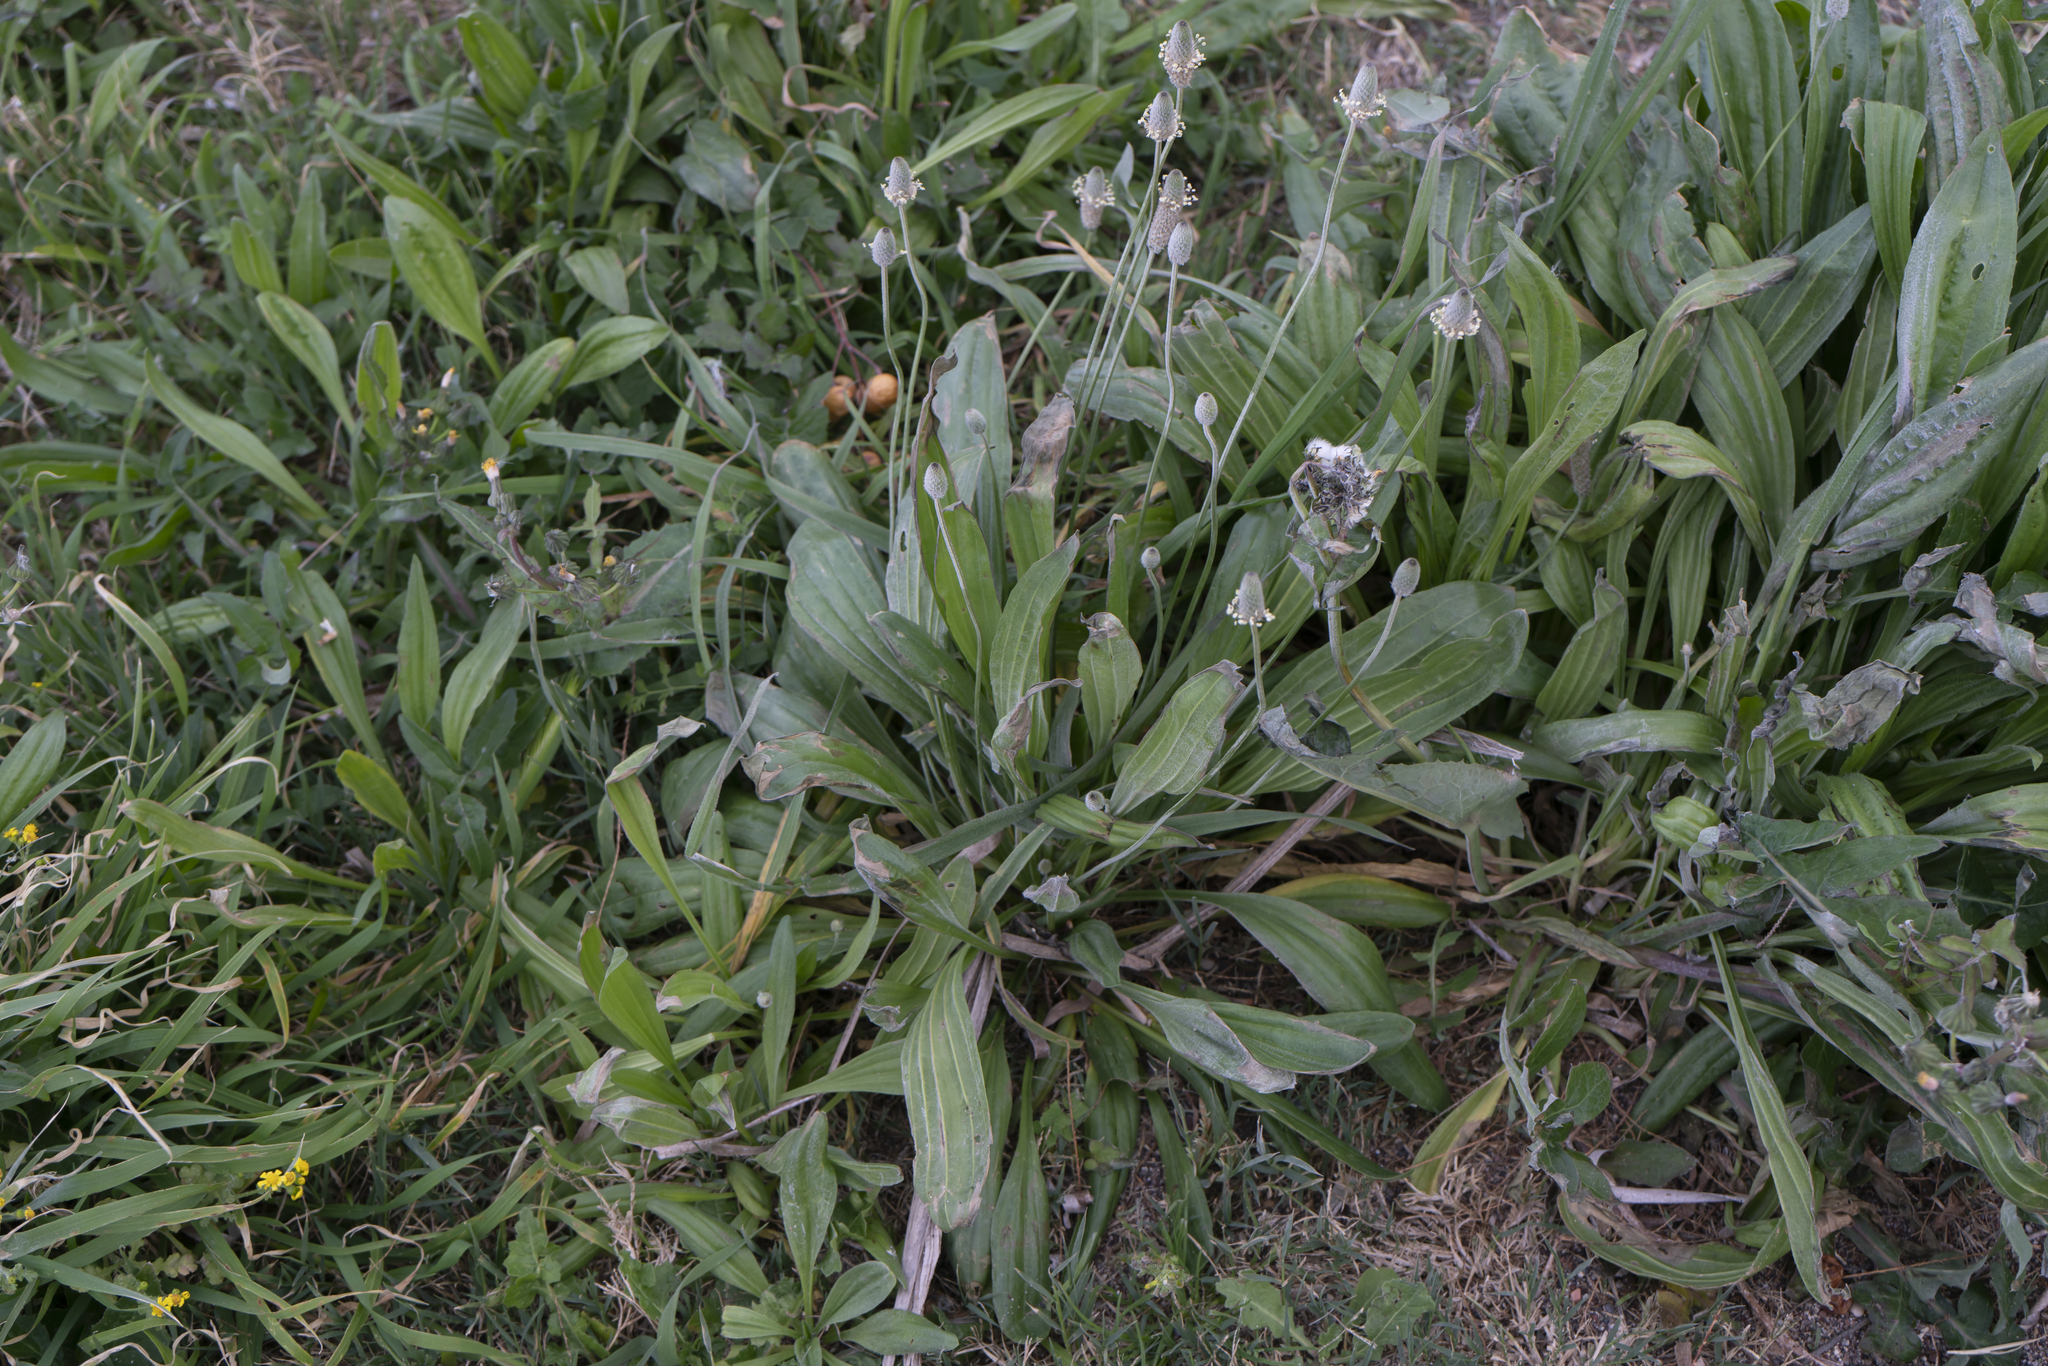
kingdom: Plantae
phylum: Tracheophyta
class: Magnoliopsida
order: Lamiales
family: Plantaginaceae
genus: Plantago
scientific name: Plantago lagopus
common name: Hare-foot plantain
